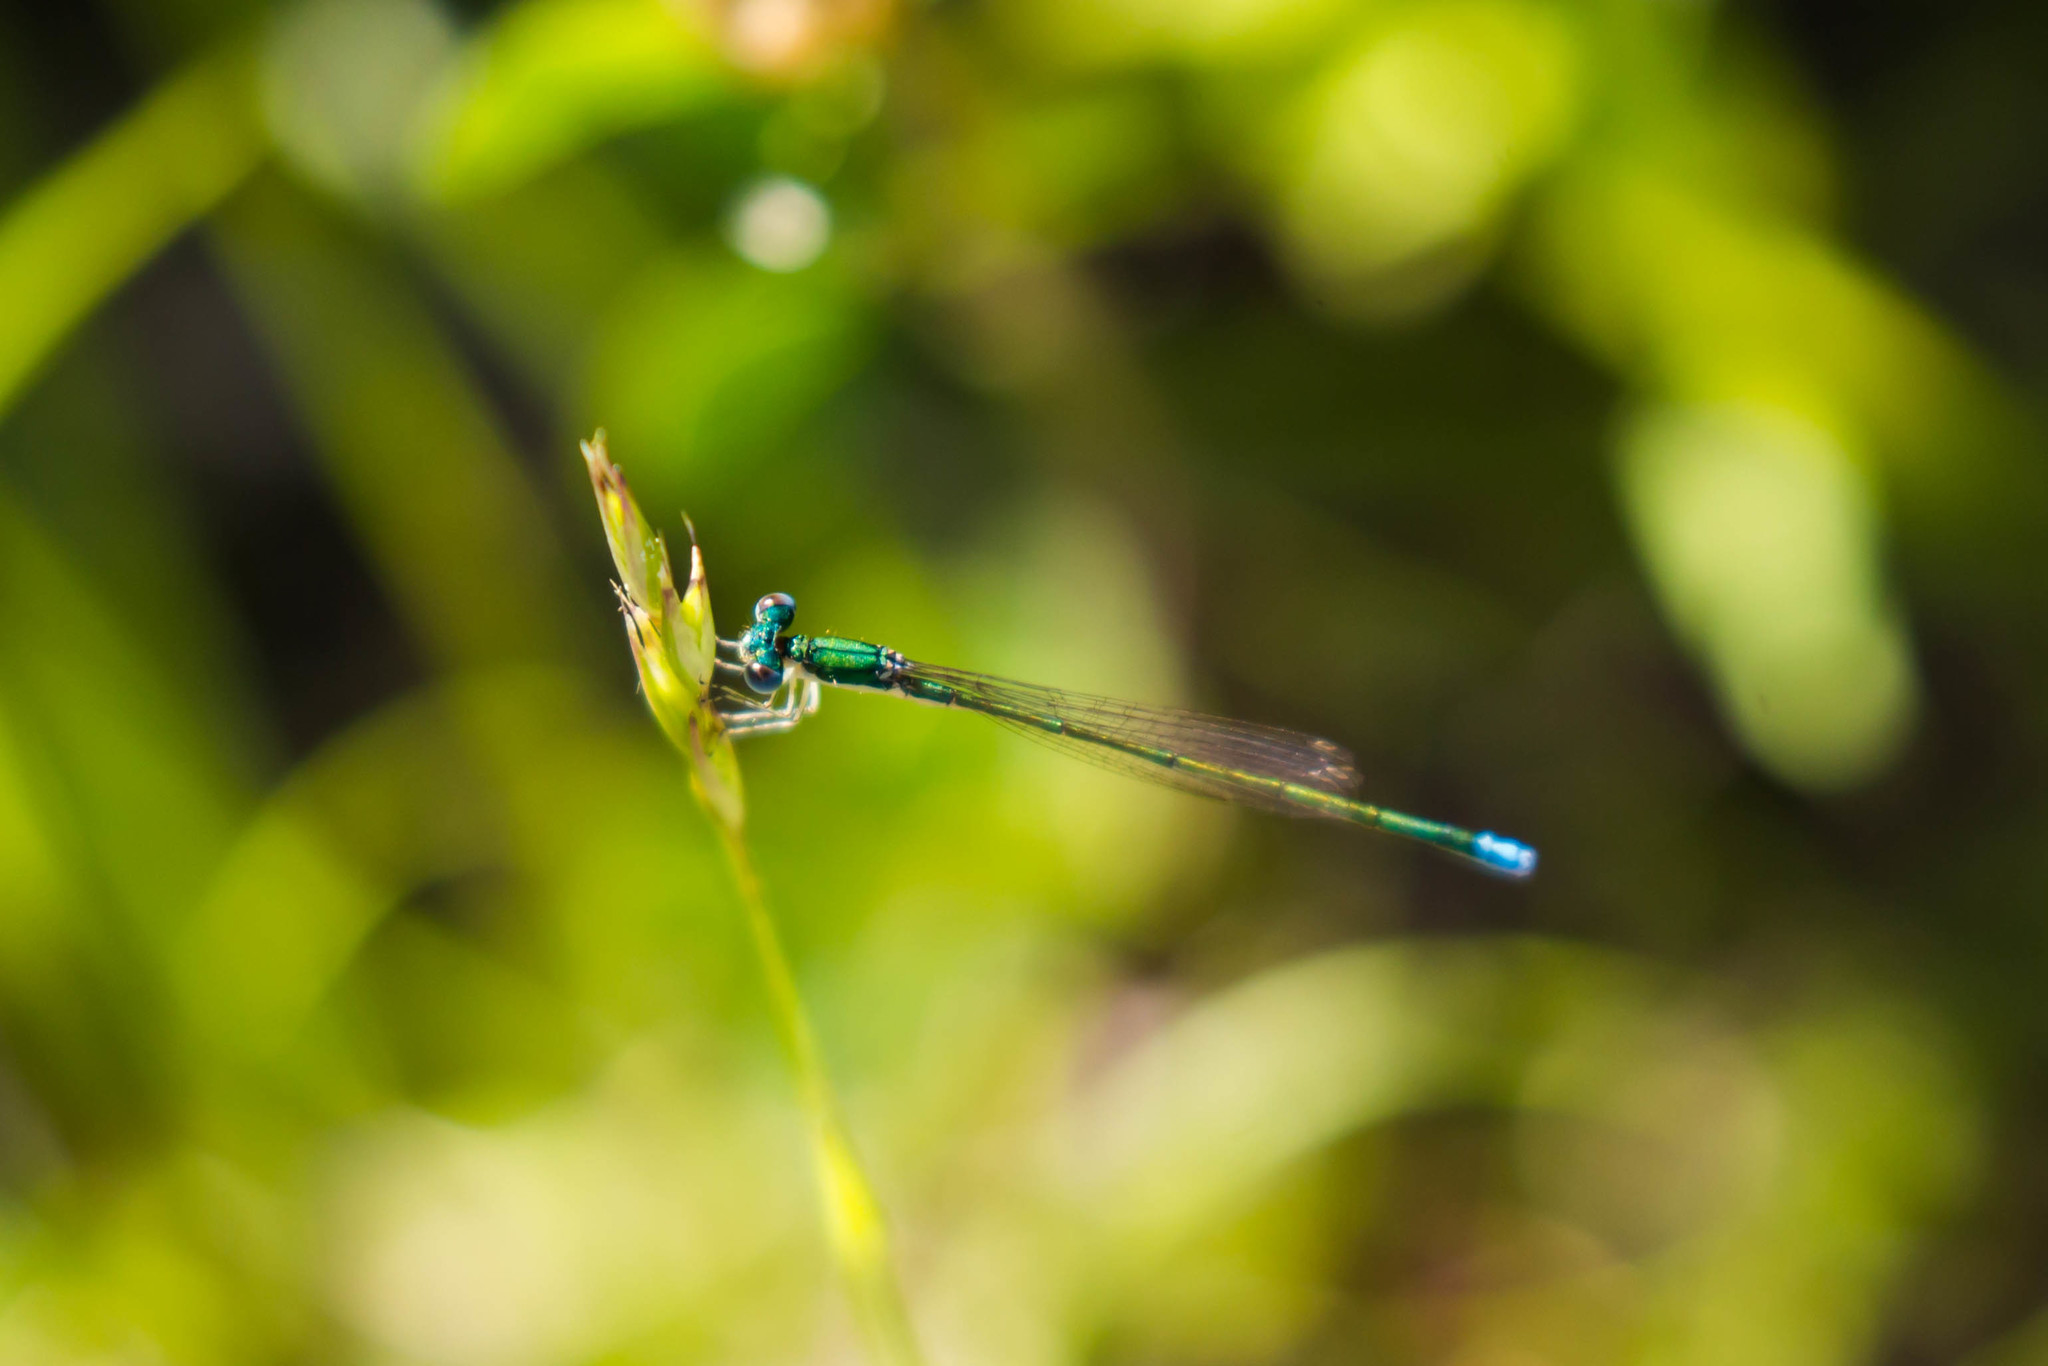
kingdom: Animalia
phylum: Arthropoda
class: Insecta
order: Odonata
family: Coenagrionidae
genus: Nehalennia
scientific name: Nehalennia irene
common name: Sedge sprite
